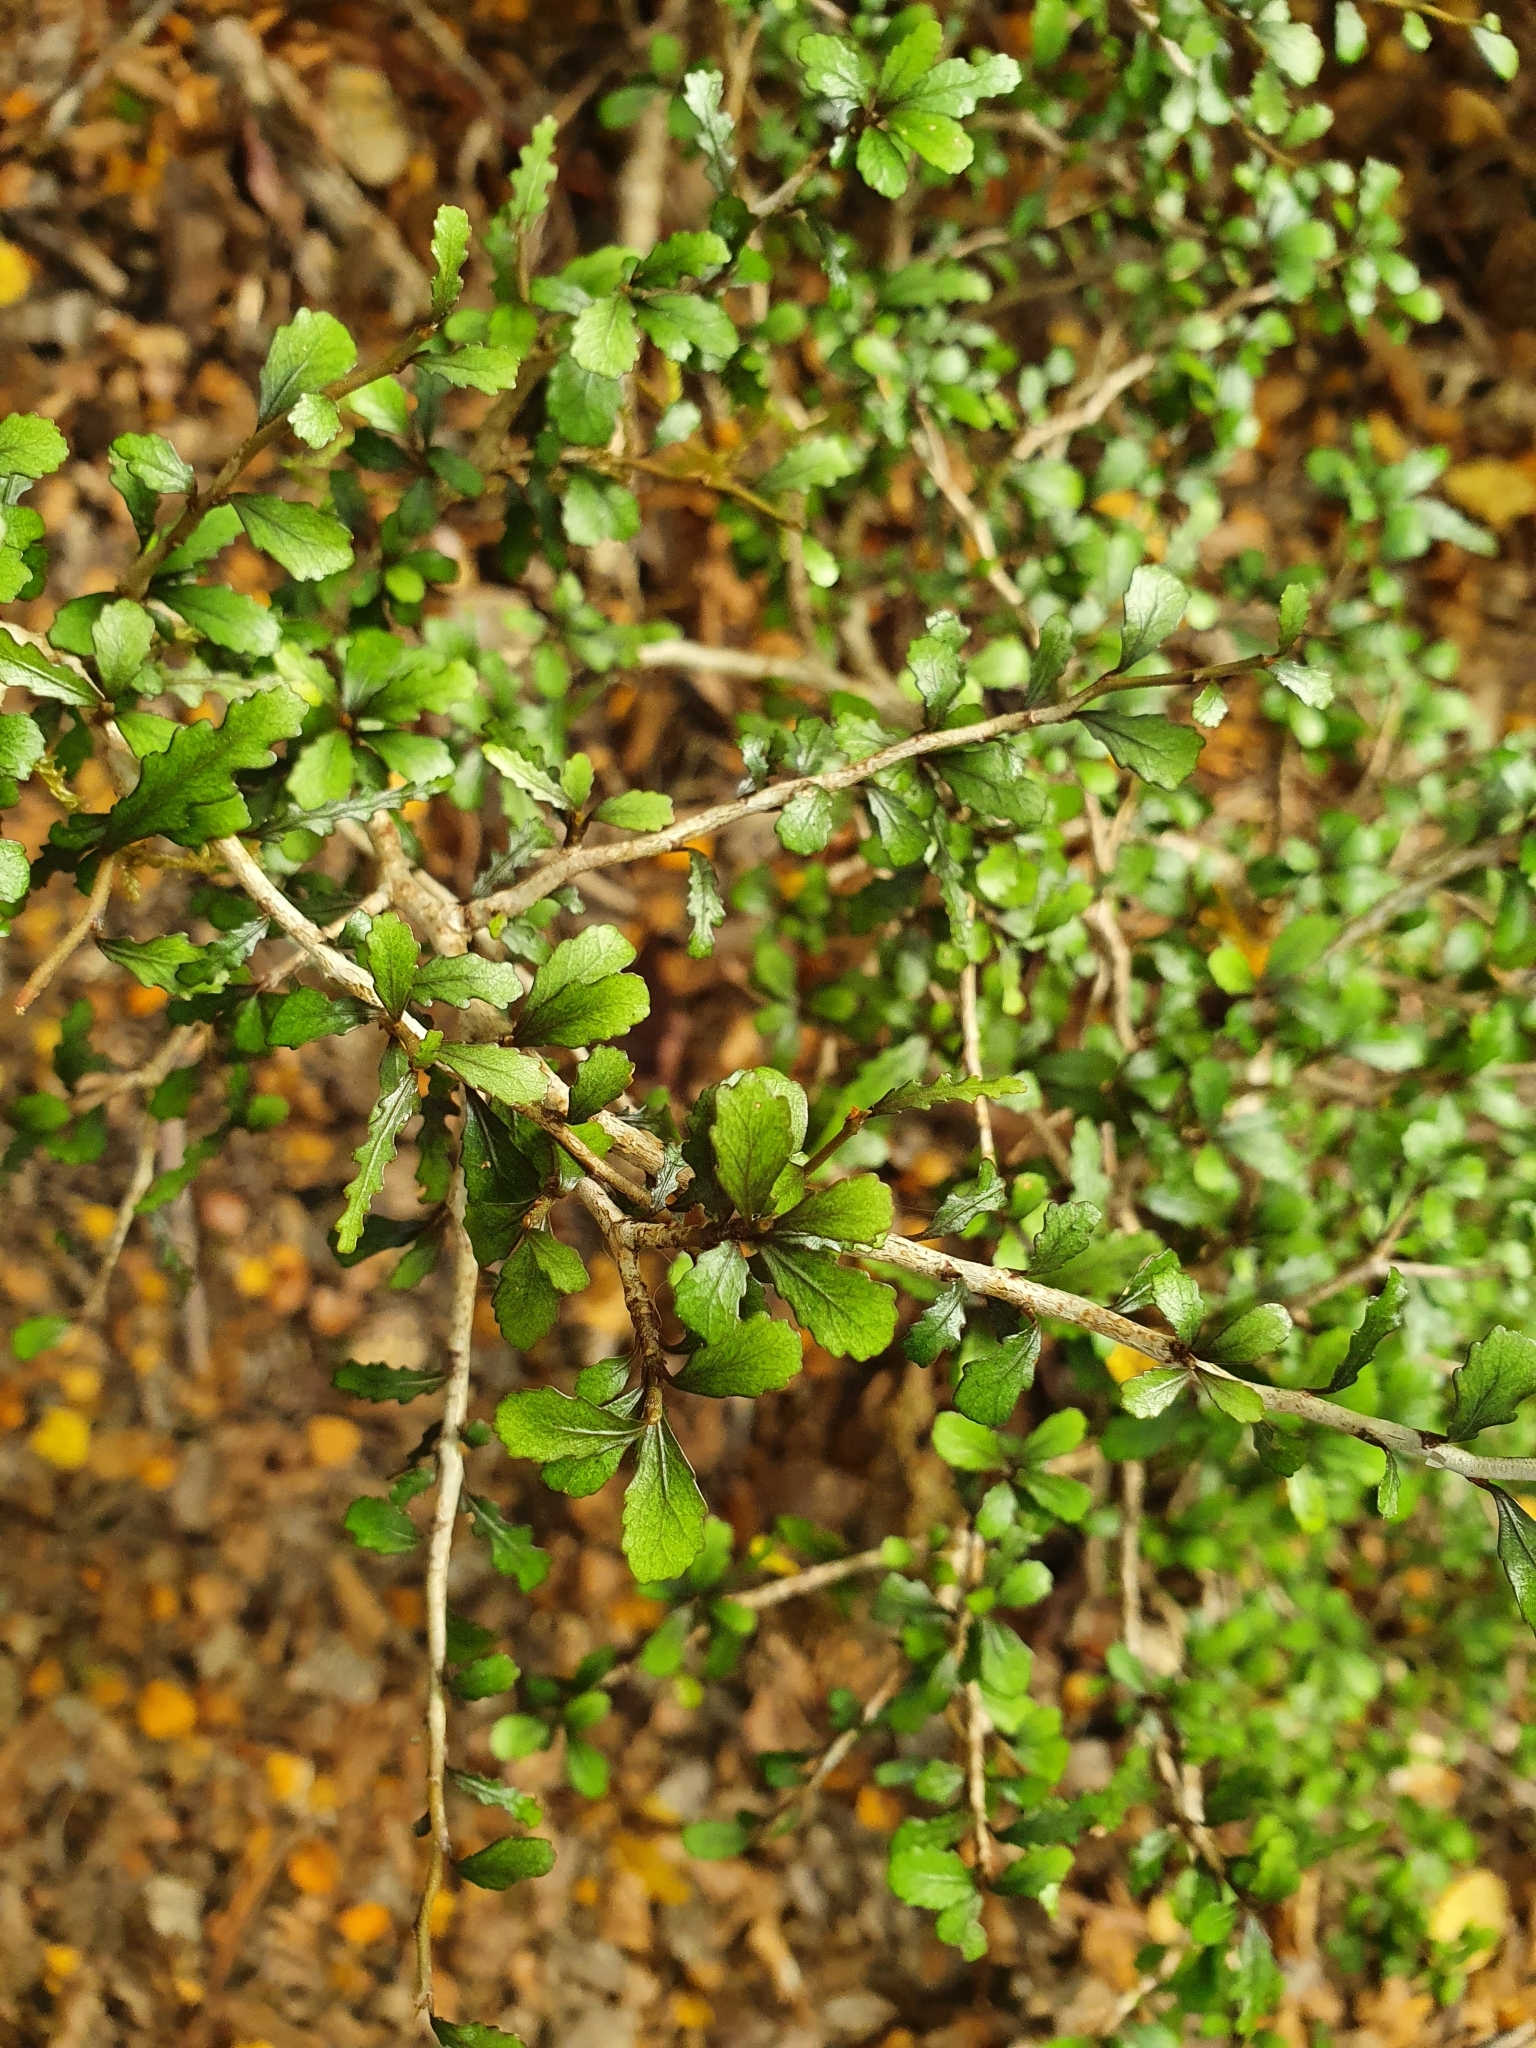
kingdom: Plantae
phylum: Tracheophyta
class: Magnoliopsida
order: Oxalidales
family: Elaeocarpaceae
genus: Elaeocarpus
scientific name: Elaeocarpus hookerianus
